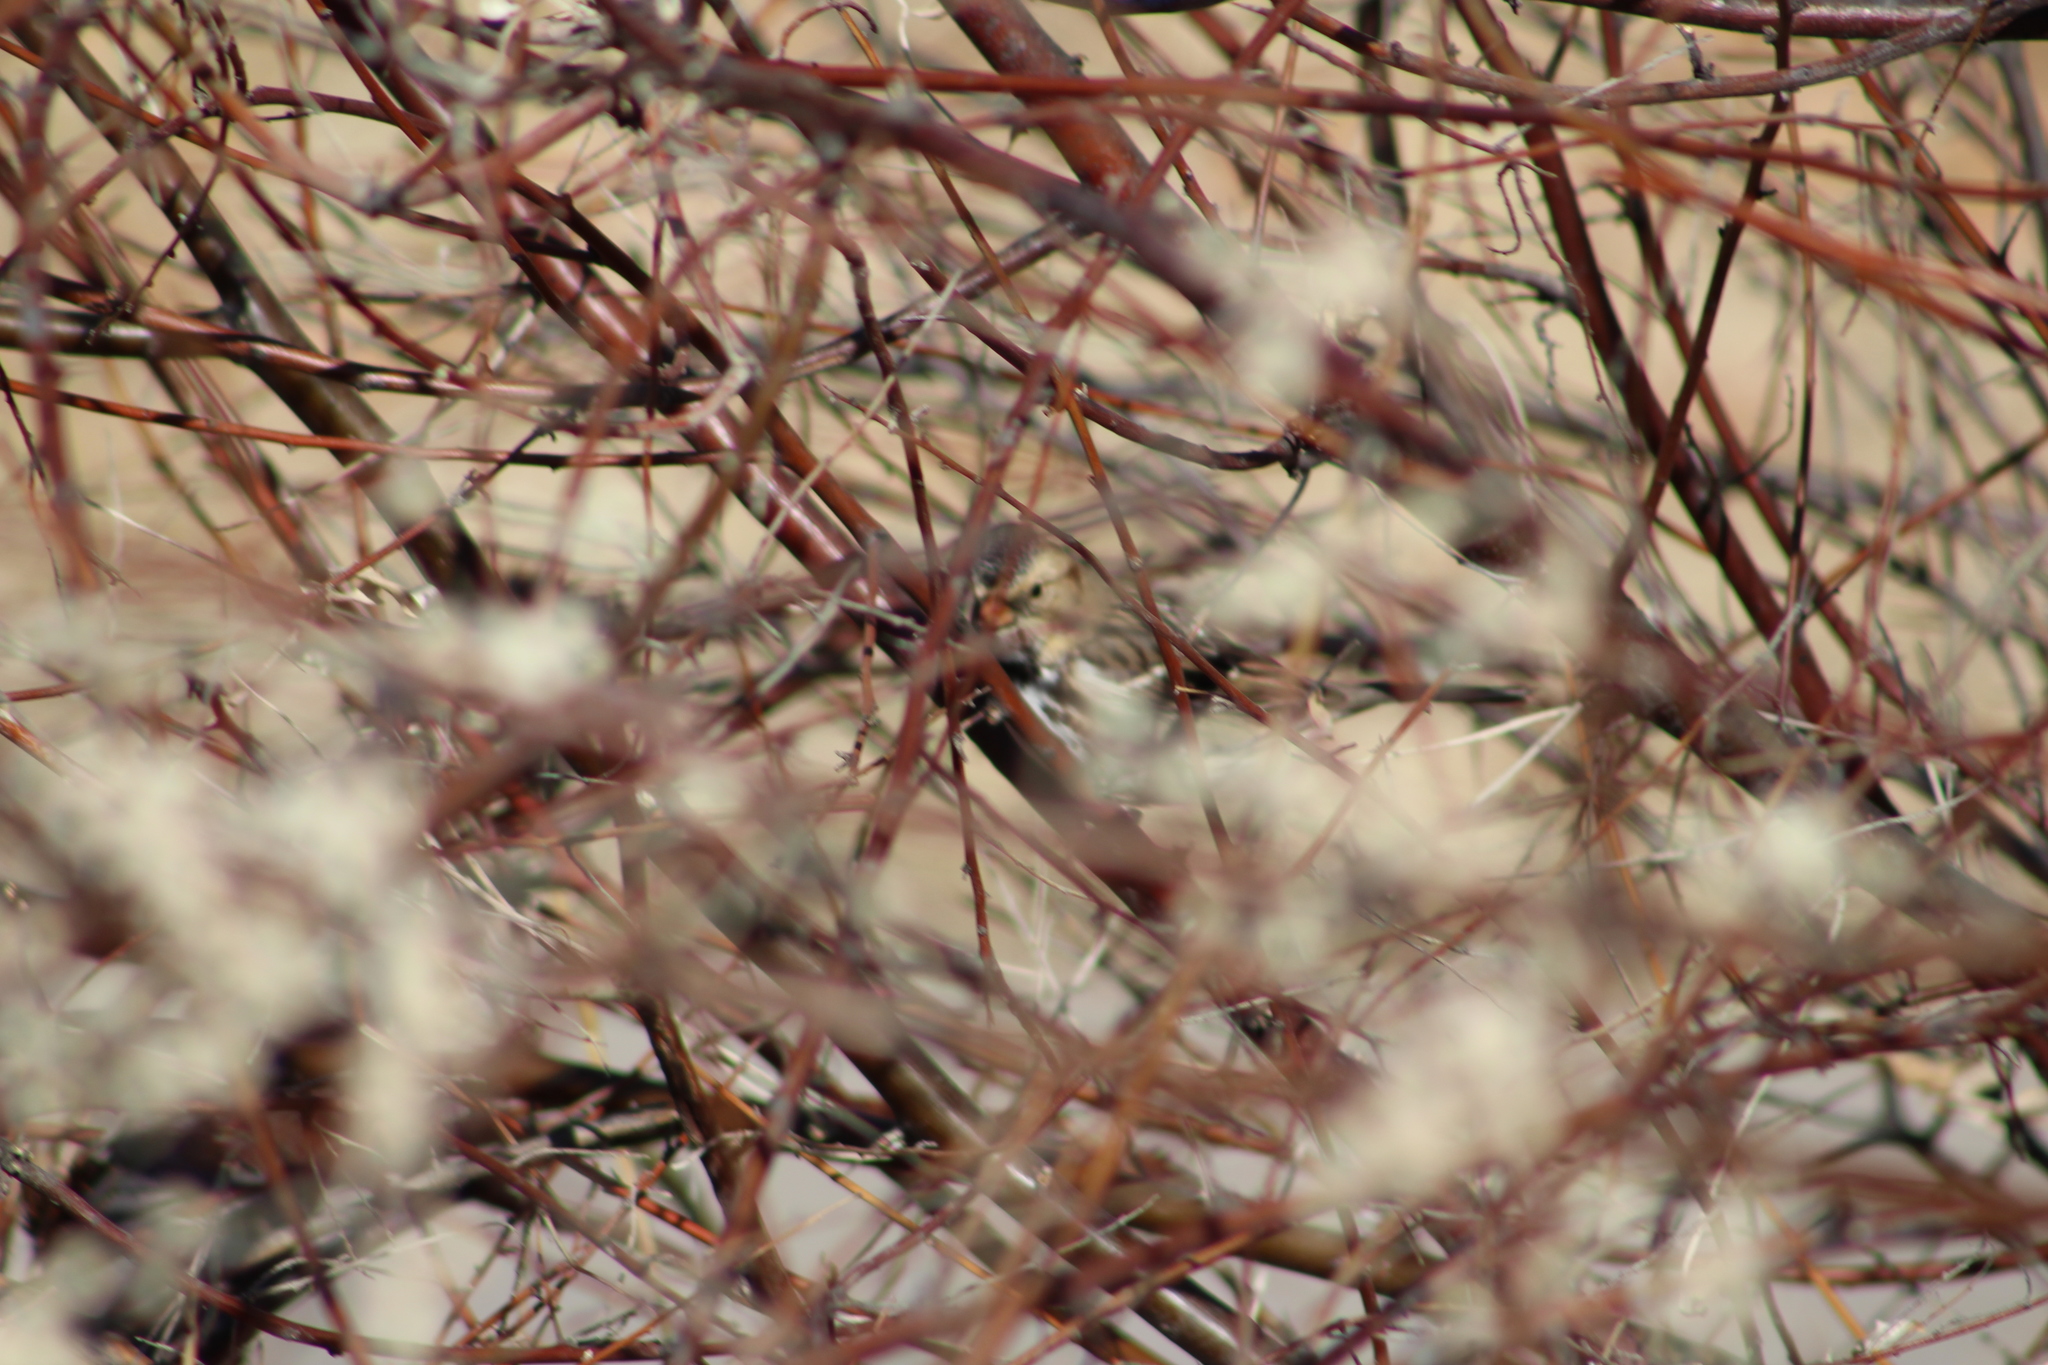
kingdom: Animalia
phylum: Chordata
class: Aves
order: Passeriformes
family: Passerellidae
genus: Zonotrichia
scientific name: Zonotrichia querula
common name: Harris's sparrow
